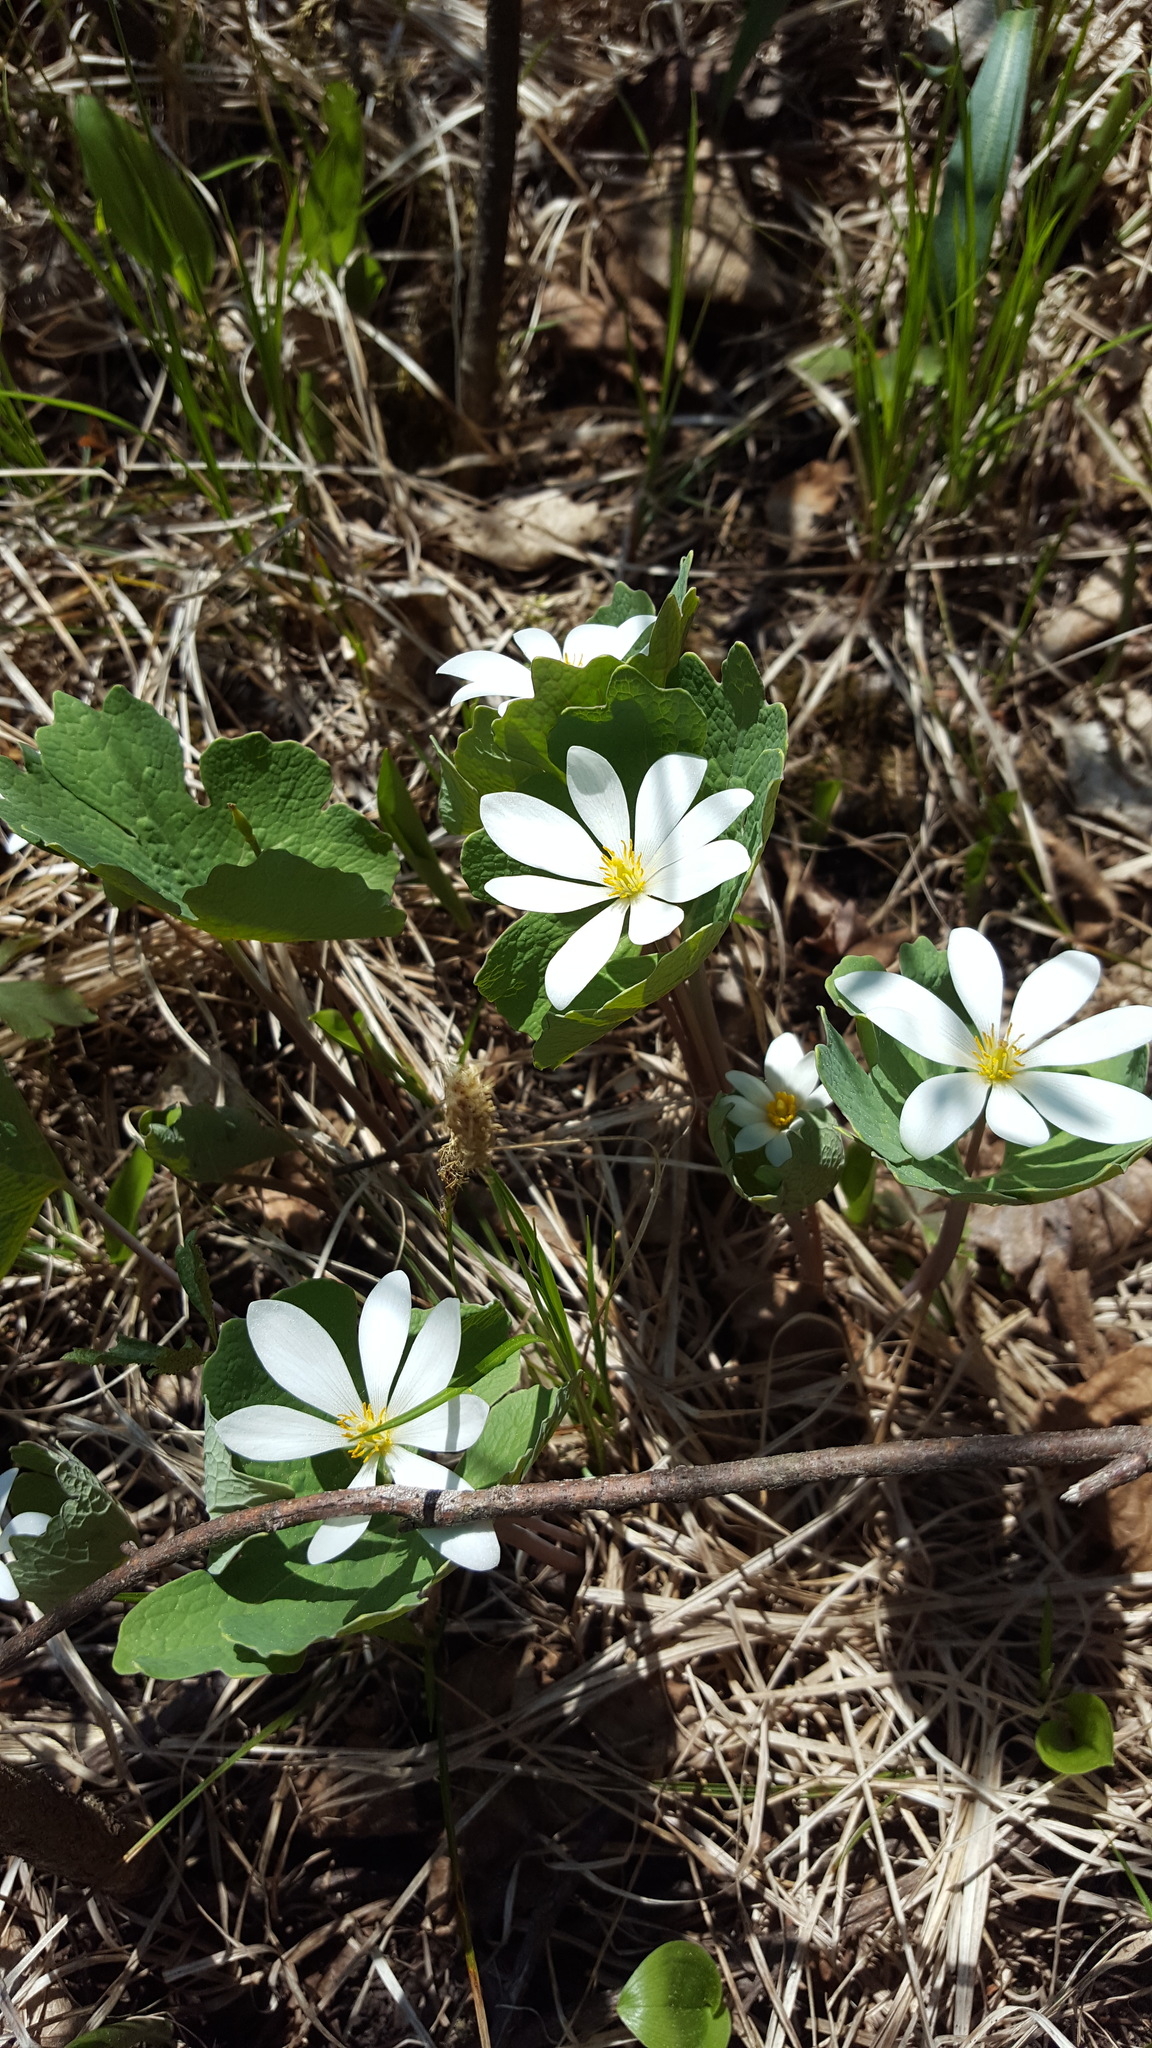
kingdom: Plantae
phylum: Tracheophyta
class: Magnoliopsida
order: Ranunculales
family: Papaveraceae
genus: Sanguinaria
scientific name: Sanguinaria canadensis
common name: Bloodroot
